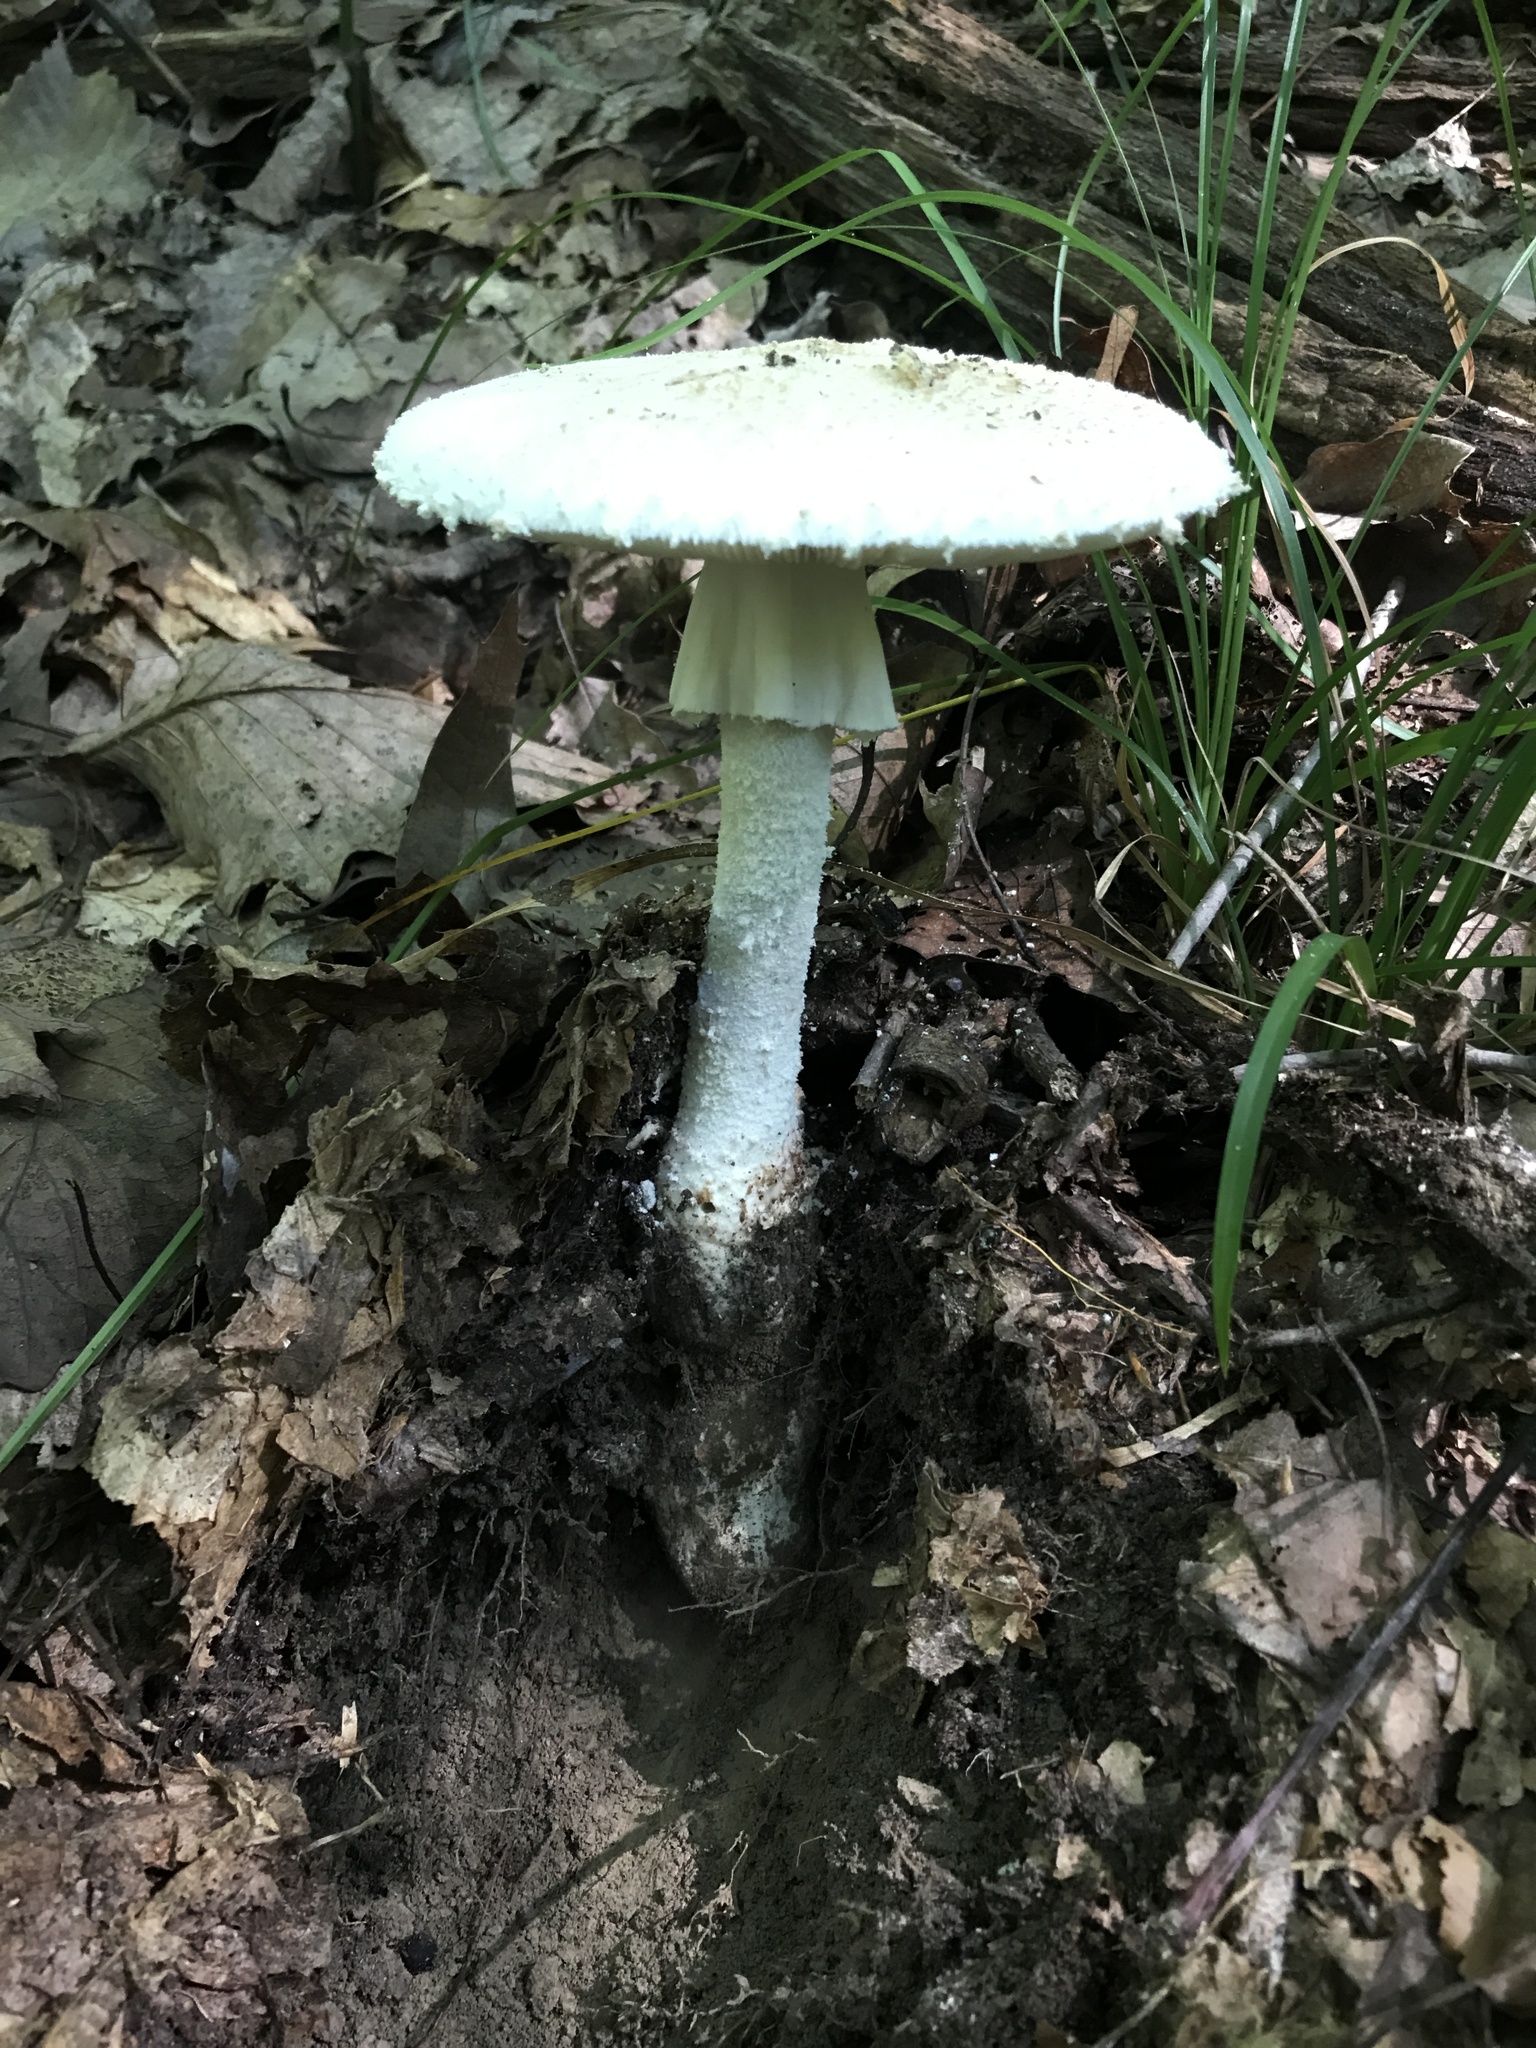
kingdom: Fungi
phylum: Basidiomycota
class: Agaricomycetes
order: Agaricales
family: Amanitaceae
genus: Amanita
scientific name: Amanita daucipes
